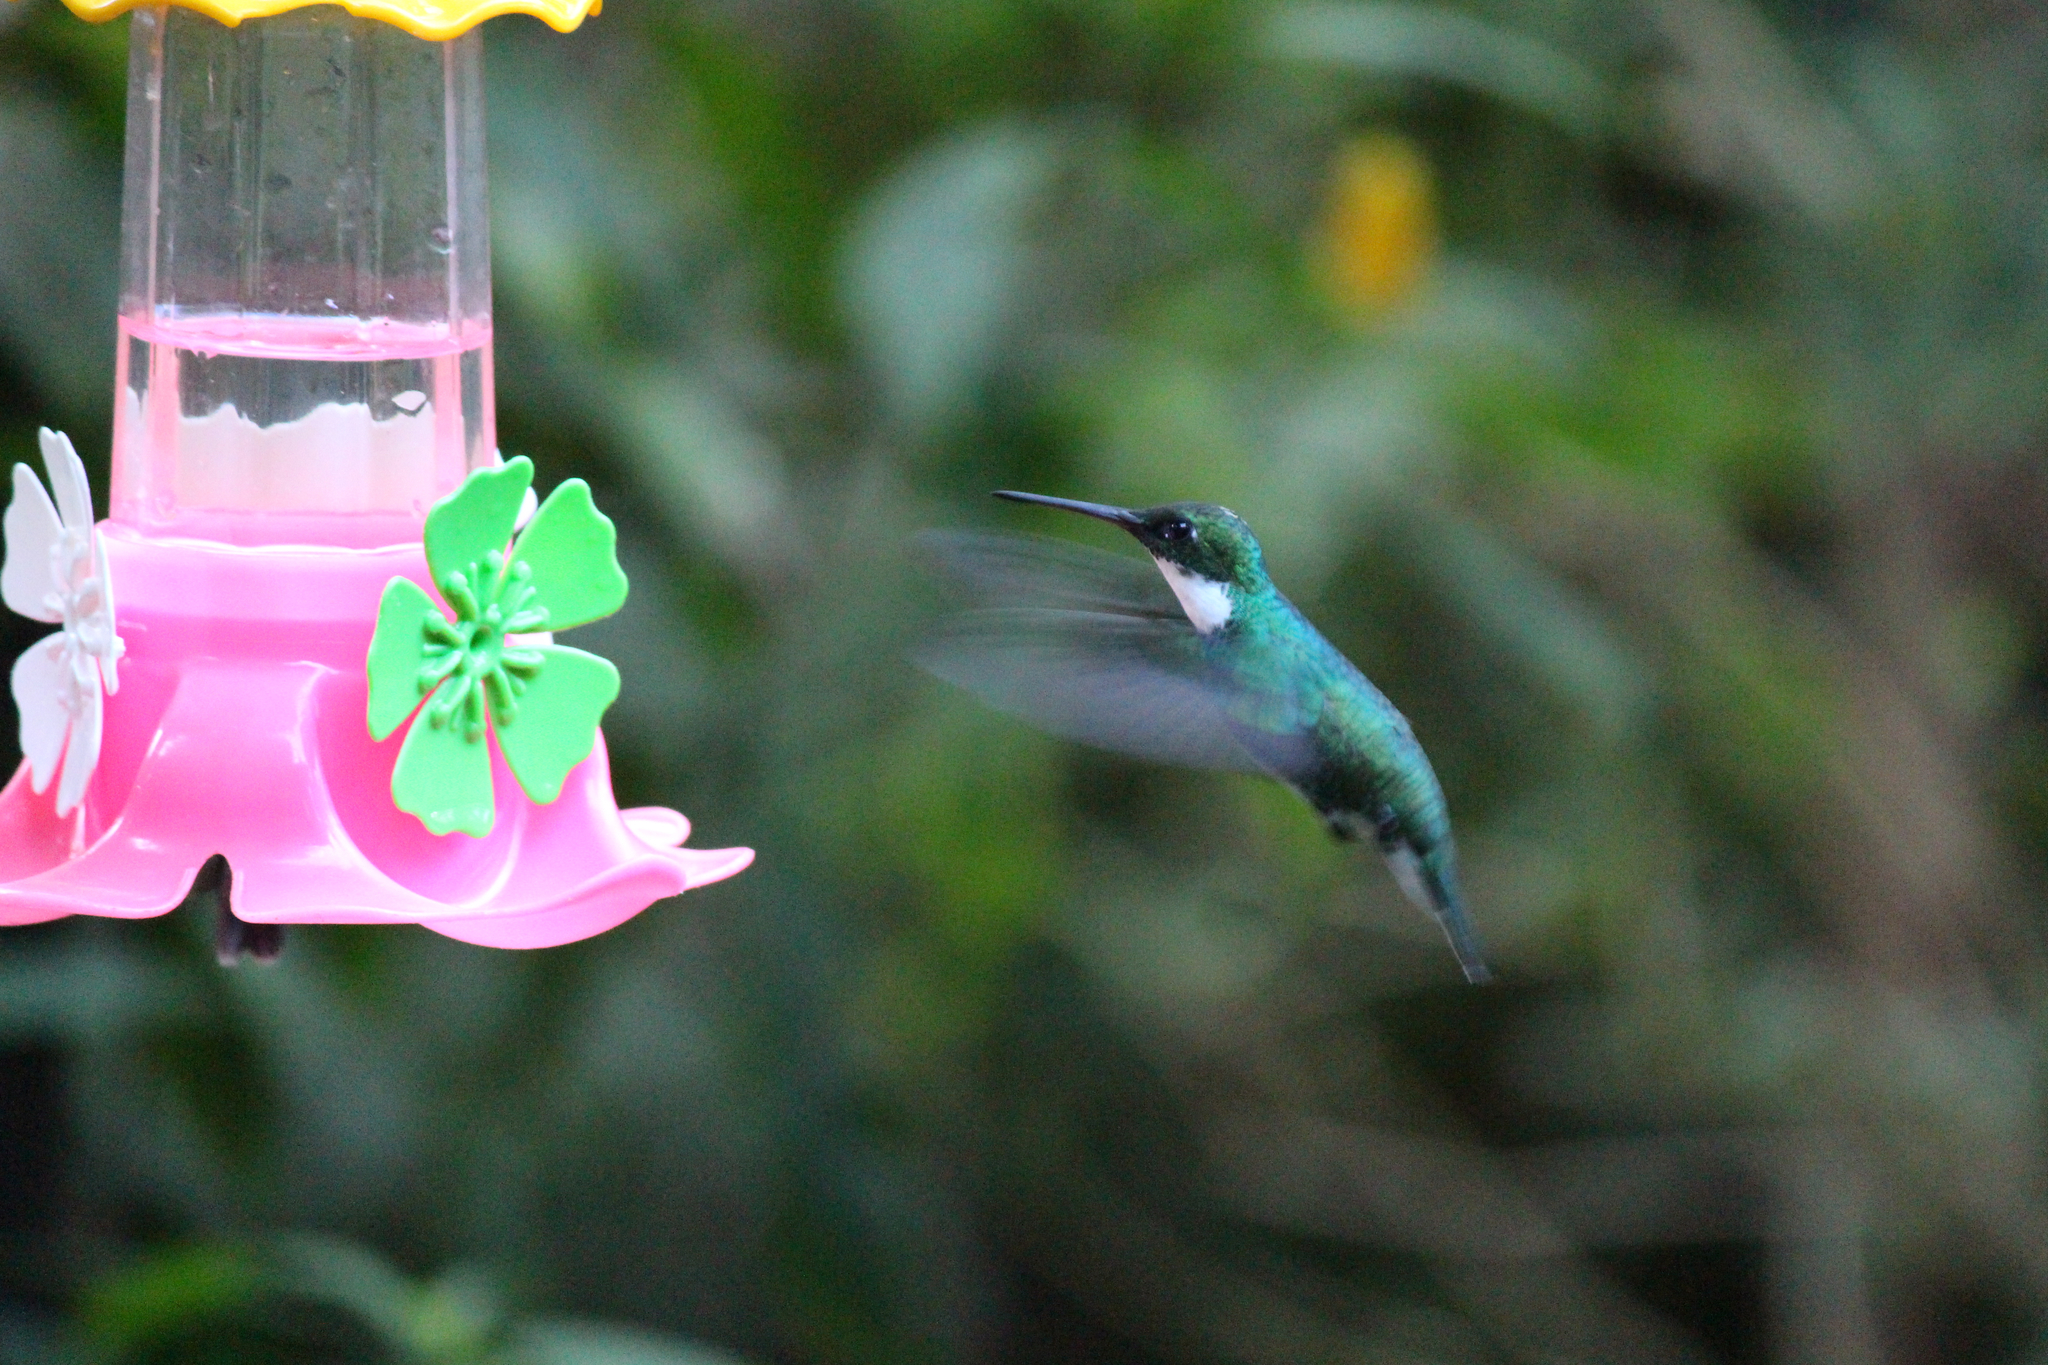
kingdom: Animalia
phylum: Chordata
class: Aves
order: Apodiformes
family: Trochilidae
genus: Leucochloris
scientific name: Leucochloris albicollis
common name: White-throated hummingbird
